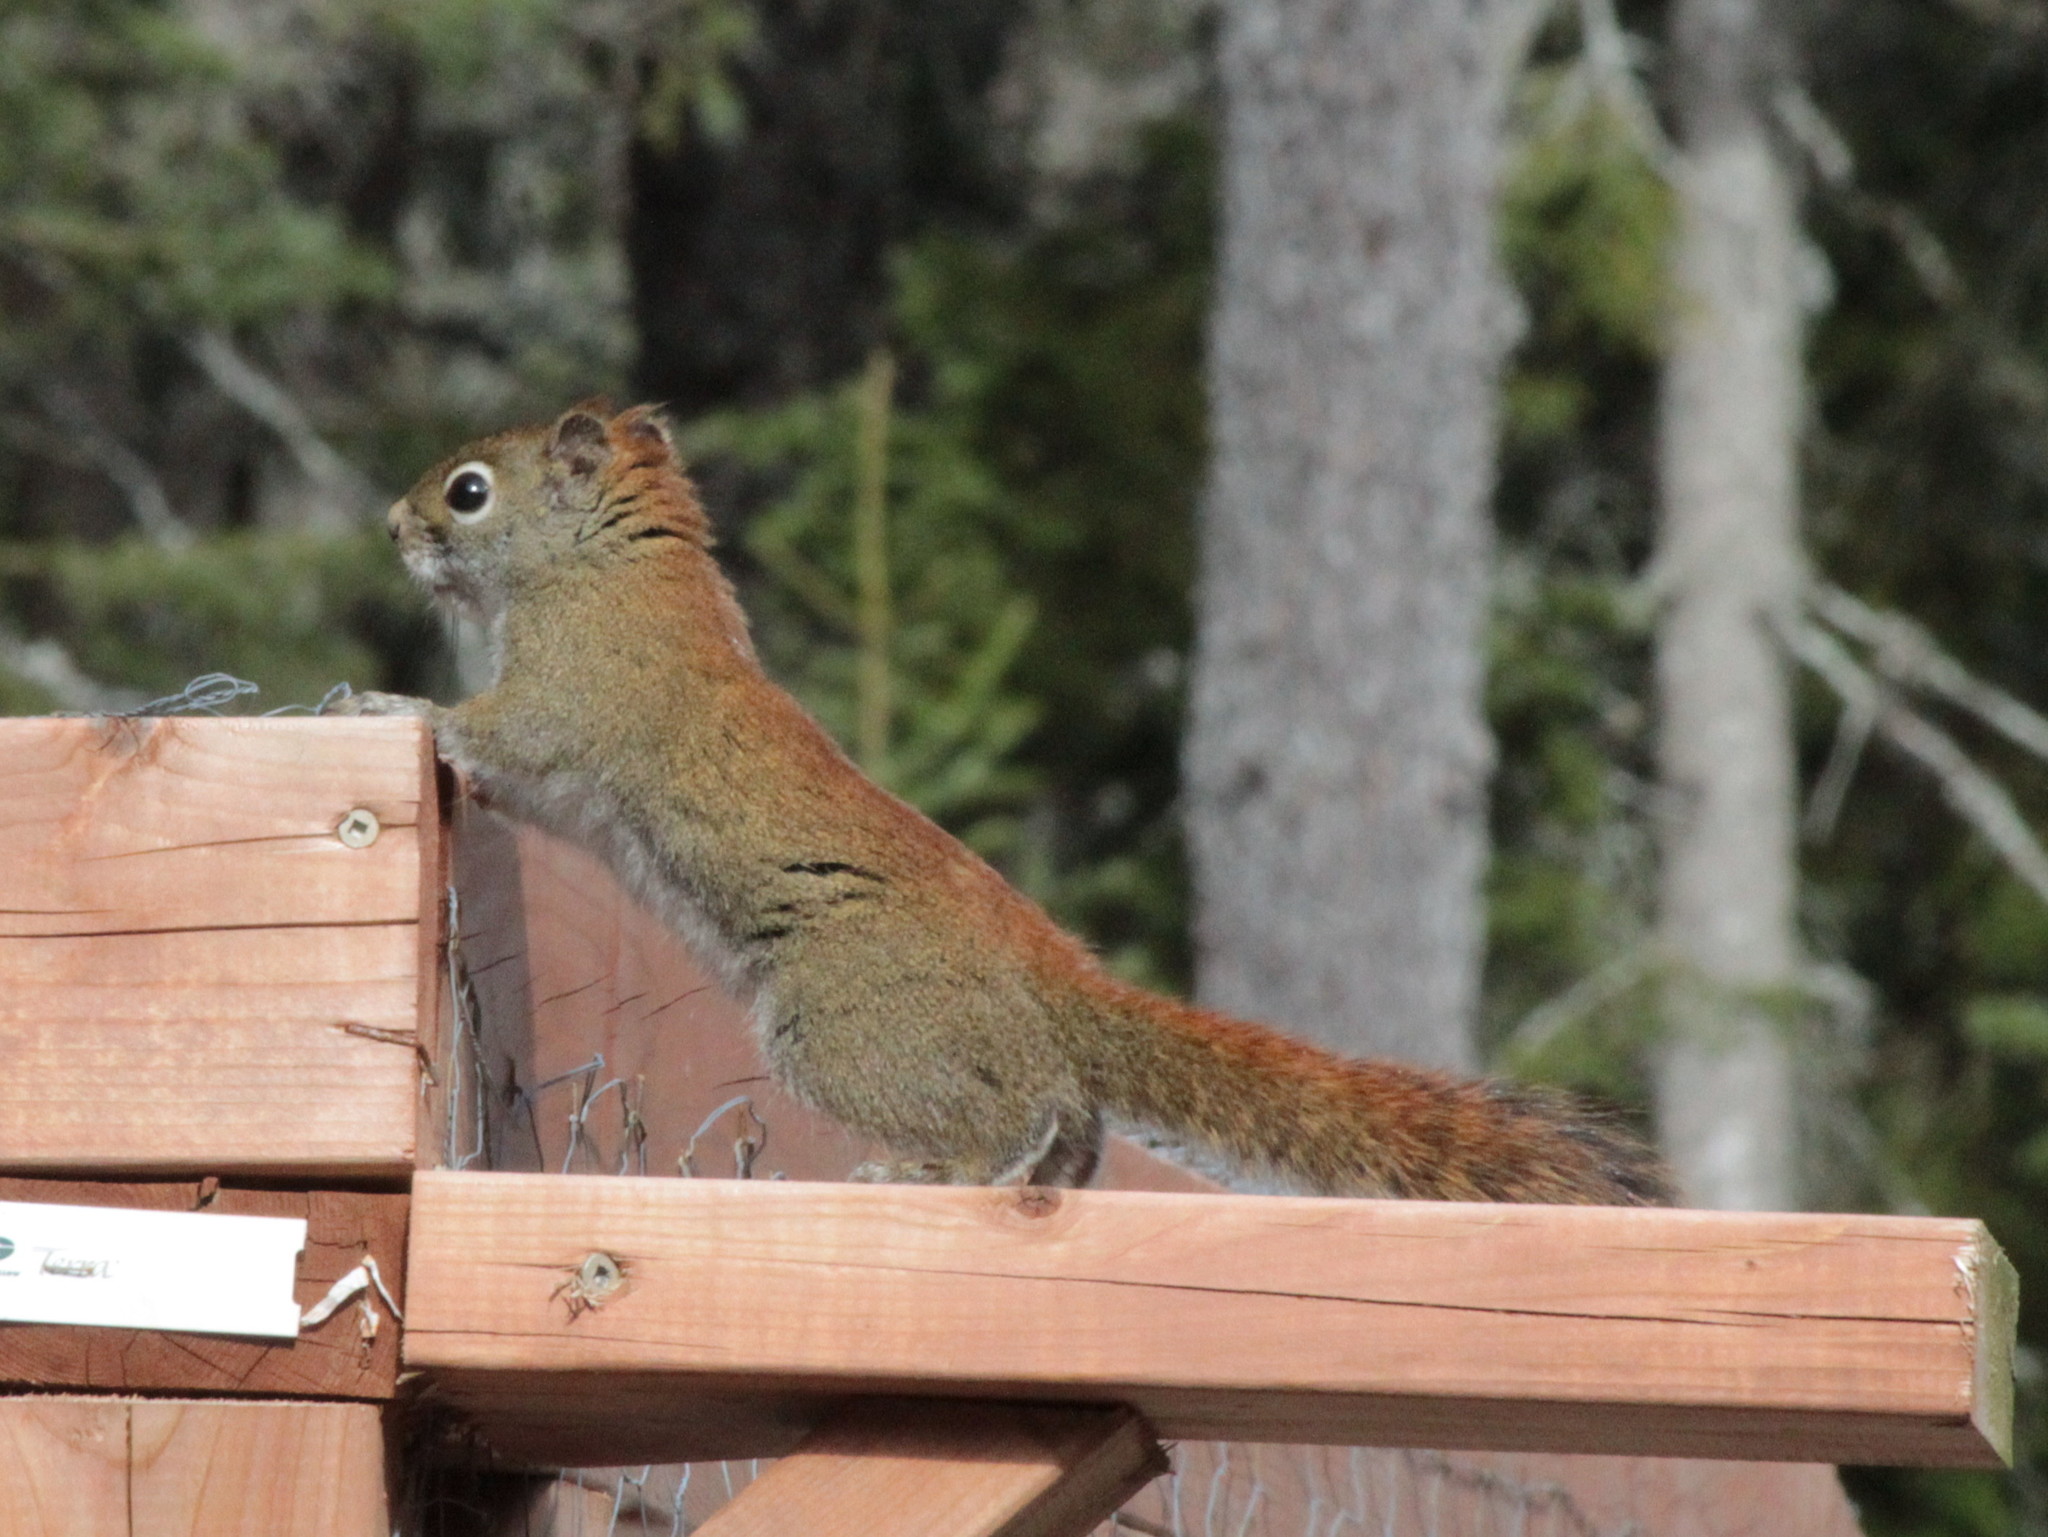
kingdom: Animalia
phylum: Chordata
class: Mammalia
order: Rodentia
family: Sciuridae
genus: Tamiasciurus
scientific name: Tamiasciurus hudsonicus
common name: Red squirrel
